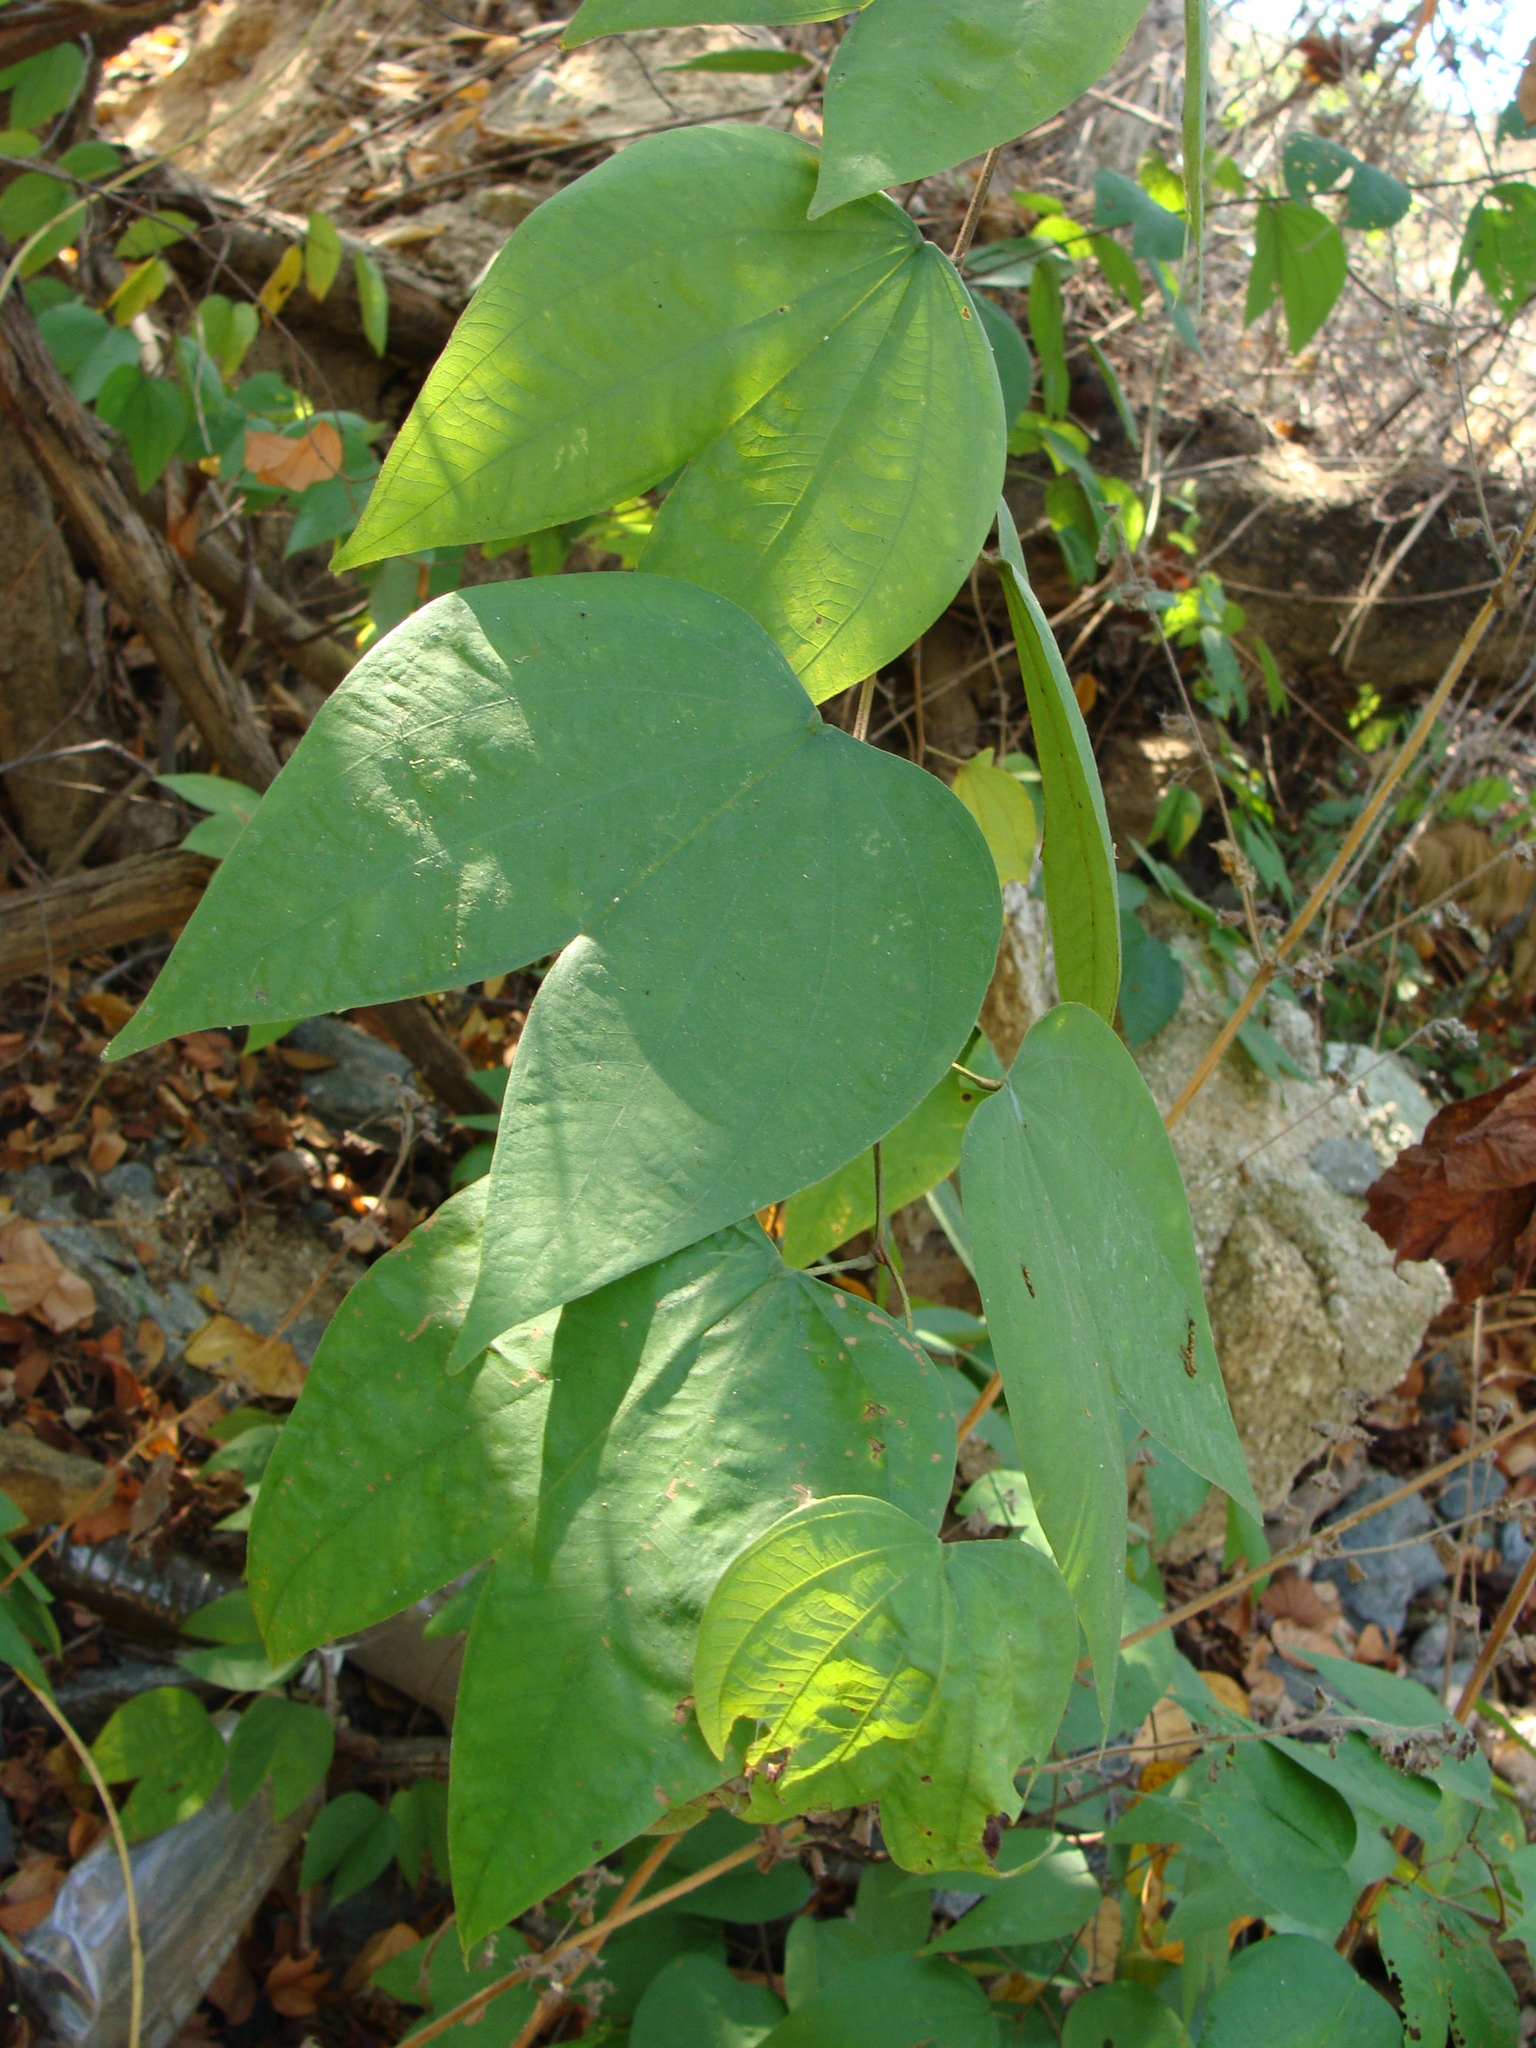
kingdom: Plantae
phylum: Tracheophyta
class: Magnoliopsida
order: Fabales
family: Fabaceae
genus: Bauhinia
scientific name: Bauhinia divaricata
